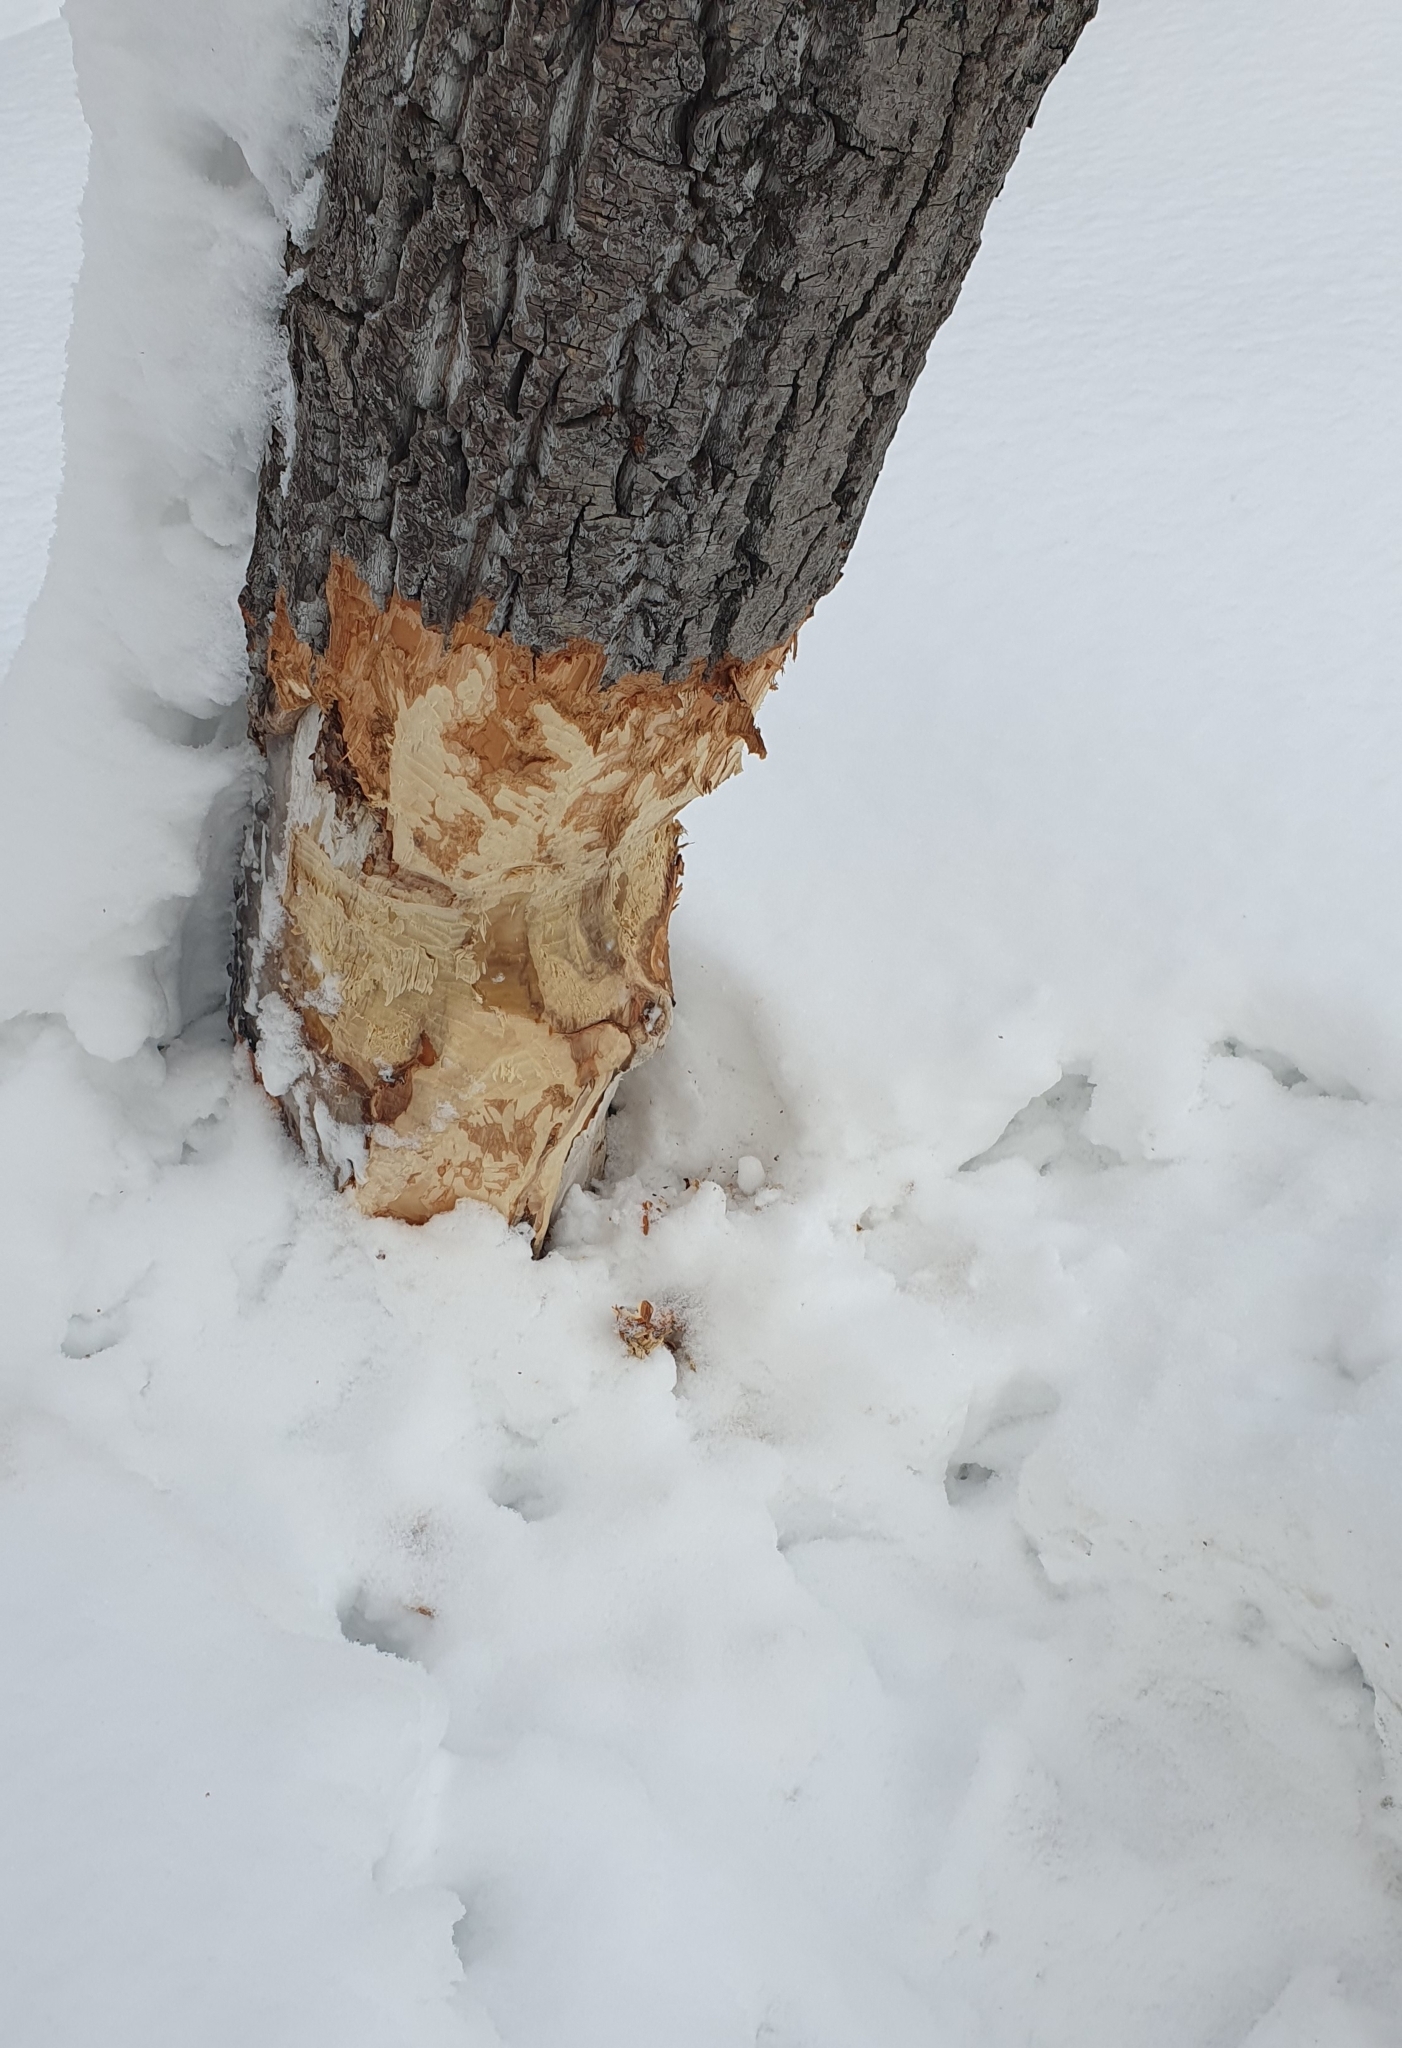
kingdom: Animalia
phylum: Chordata
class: Mammalia
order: Rodentia
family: Castoridae
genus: Castor
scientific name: Castor fiber
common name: Eurasian beaver
